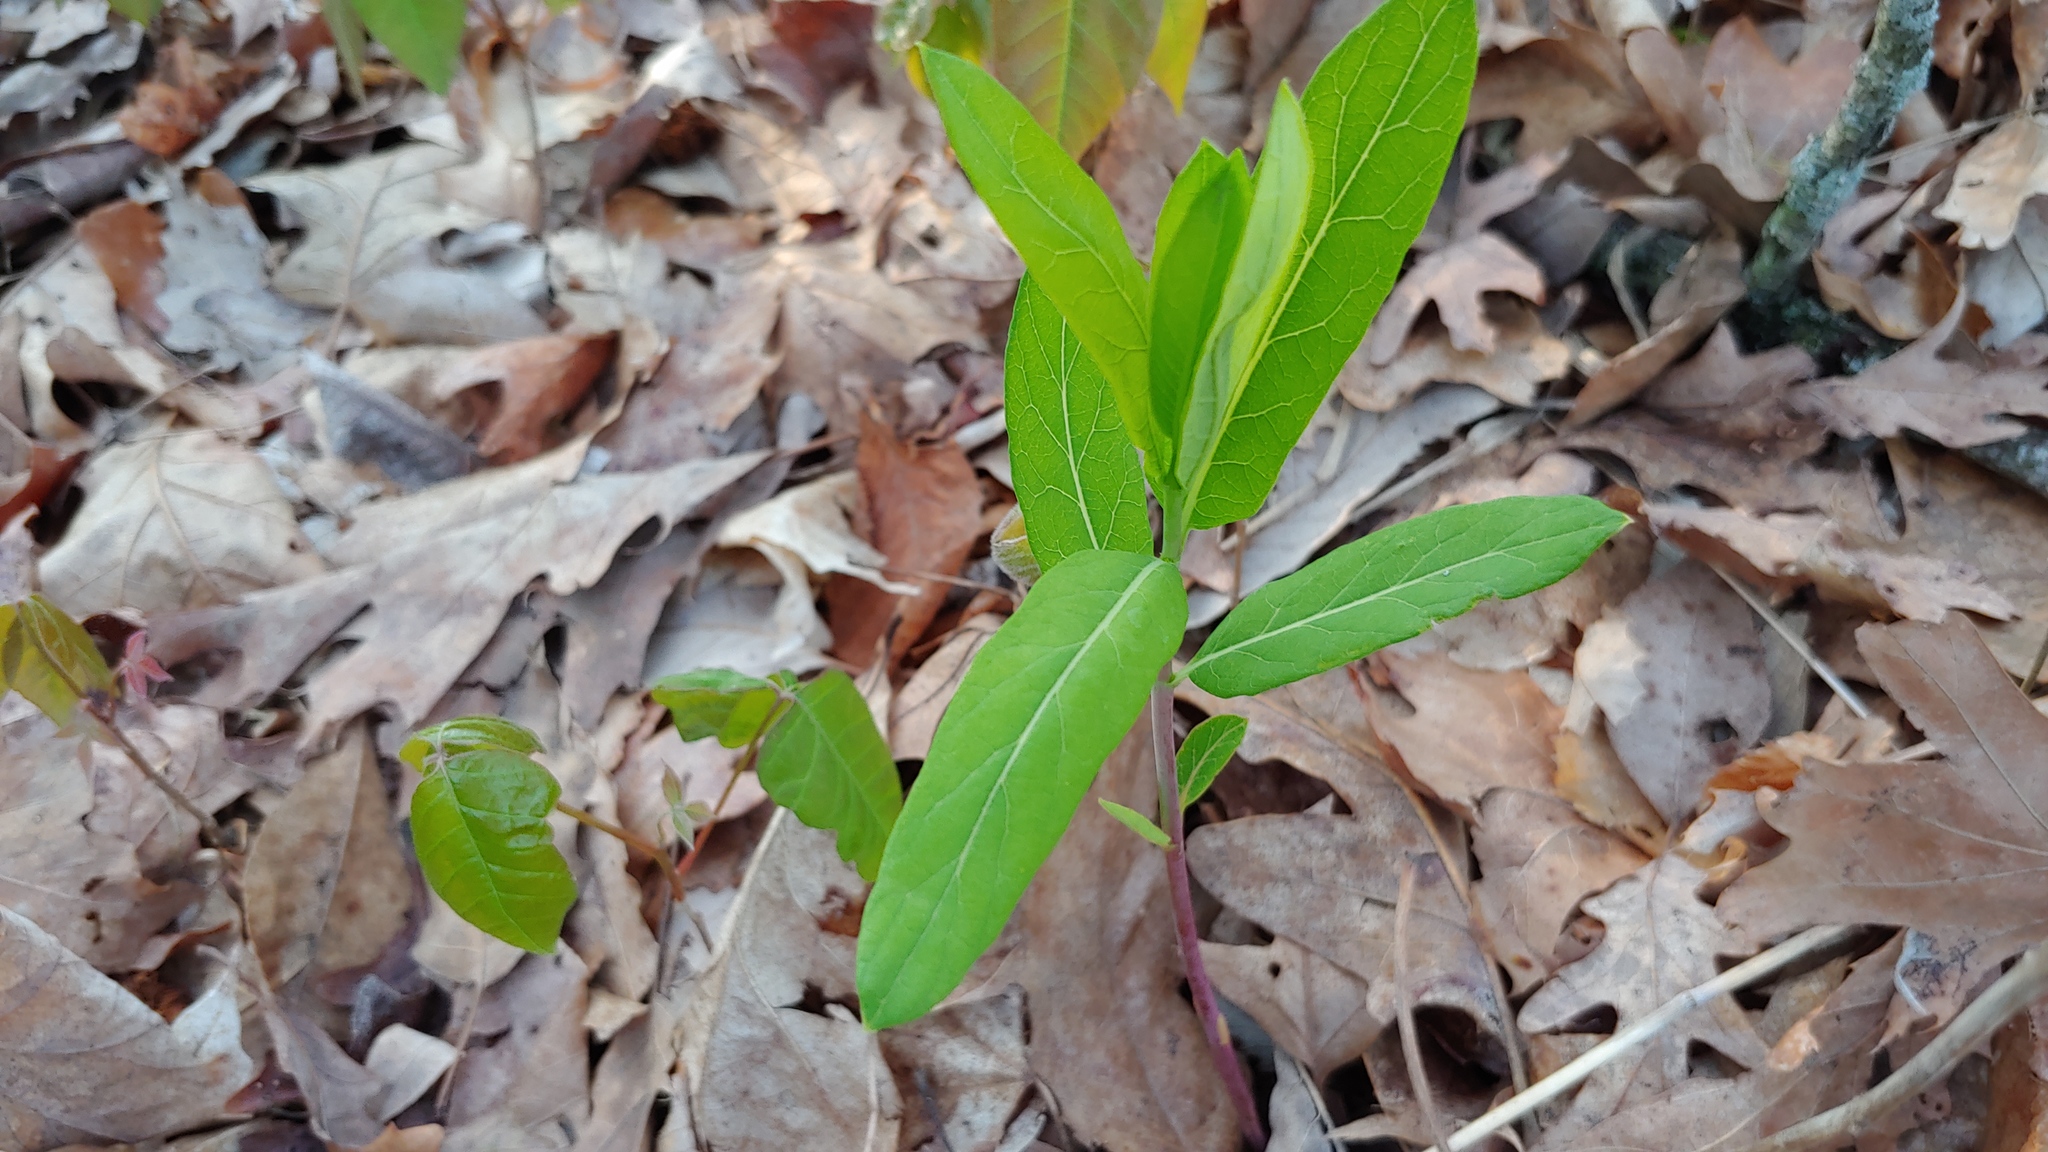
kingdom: Plantae
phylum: Tracheophyta
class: Magnoliopsida
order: Gentianales
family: Apocynaceae
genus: Apocynum
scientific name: Apocynum cannabinum
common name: Hemp dogbane
